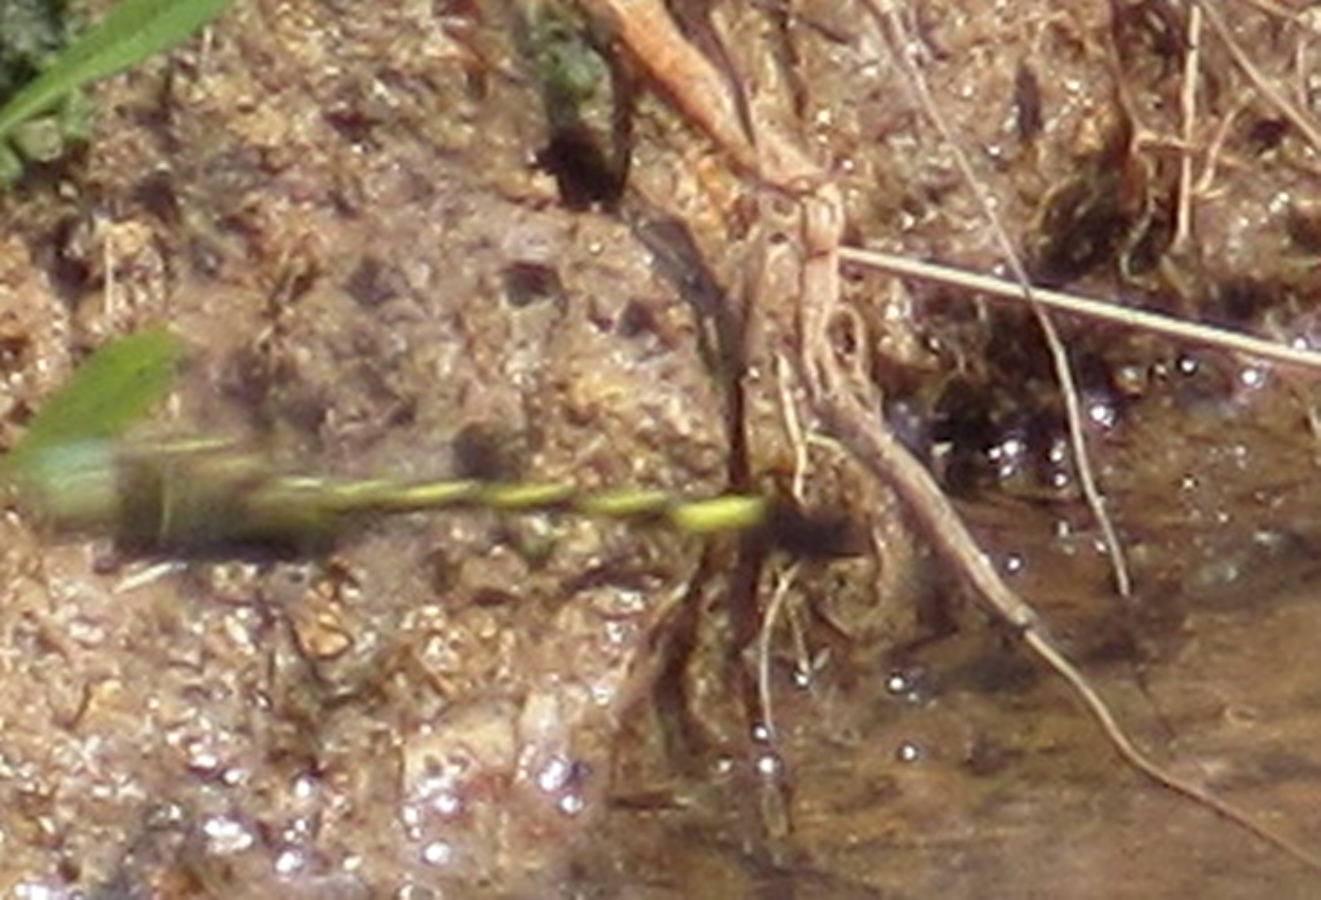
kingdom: Animalia
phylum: Arthropoda
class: Insecta
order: Odonata
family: Macromiidae
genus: Phyllomacromia
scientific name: Phyllomacromia picta
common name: Darting cruiser
